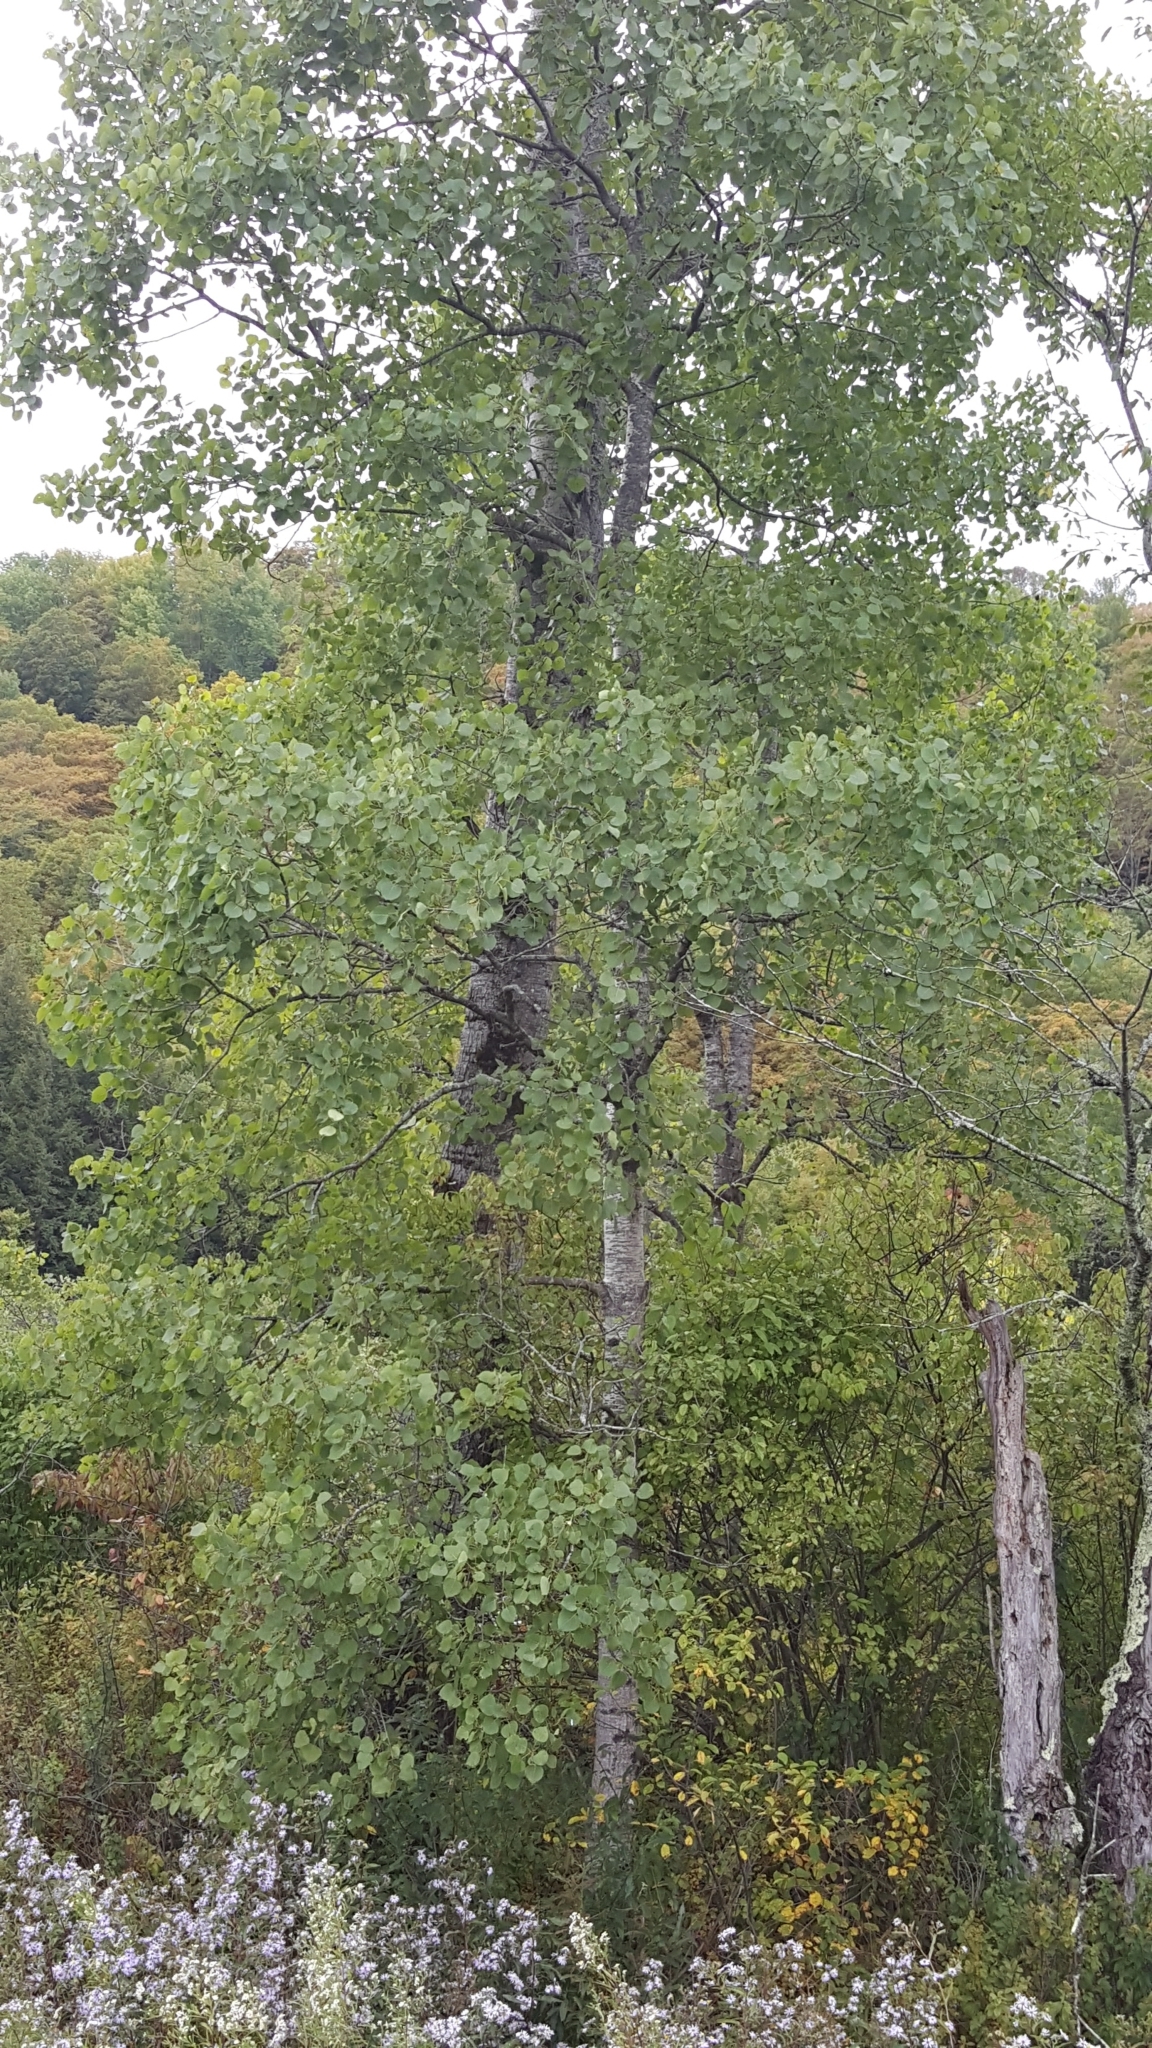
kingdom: Plantae
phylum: Tracheophyta
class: Magnoliopsida
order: Malpighiales
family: Salicaceae
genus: Populus
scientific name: Populus tremuloides
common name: Quaking aspen
